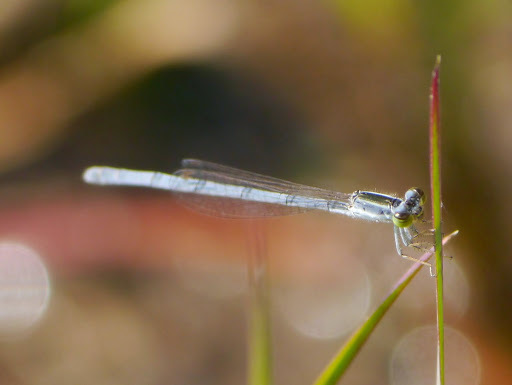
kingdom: Animalia
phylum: Arthropoda
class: Insecta
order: Odonata
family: Coenagrionidae
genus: Ischnura
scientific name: Ischnura hastata
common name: Citrine forktail
